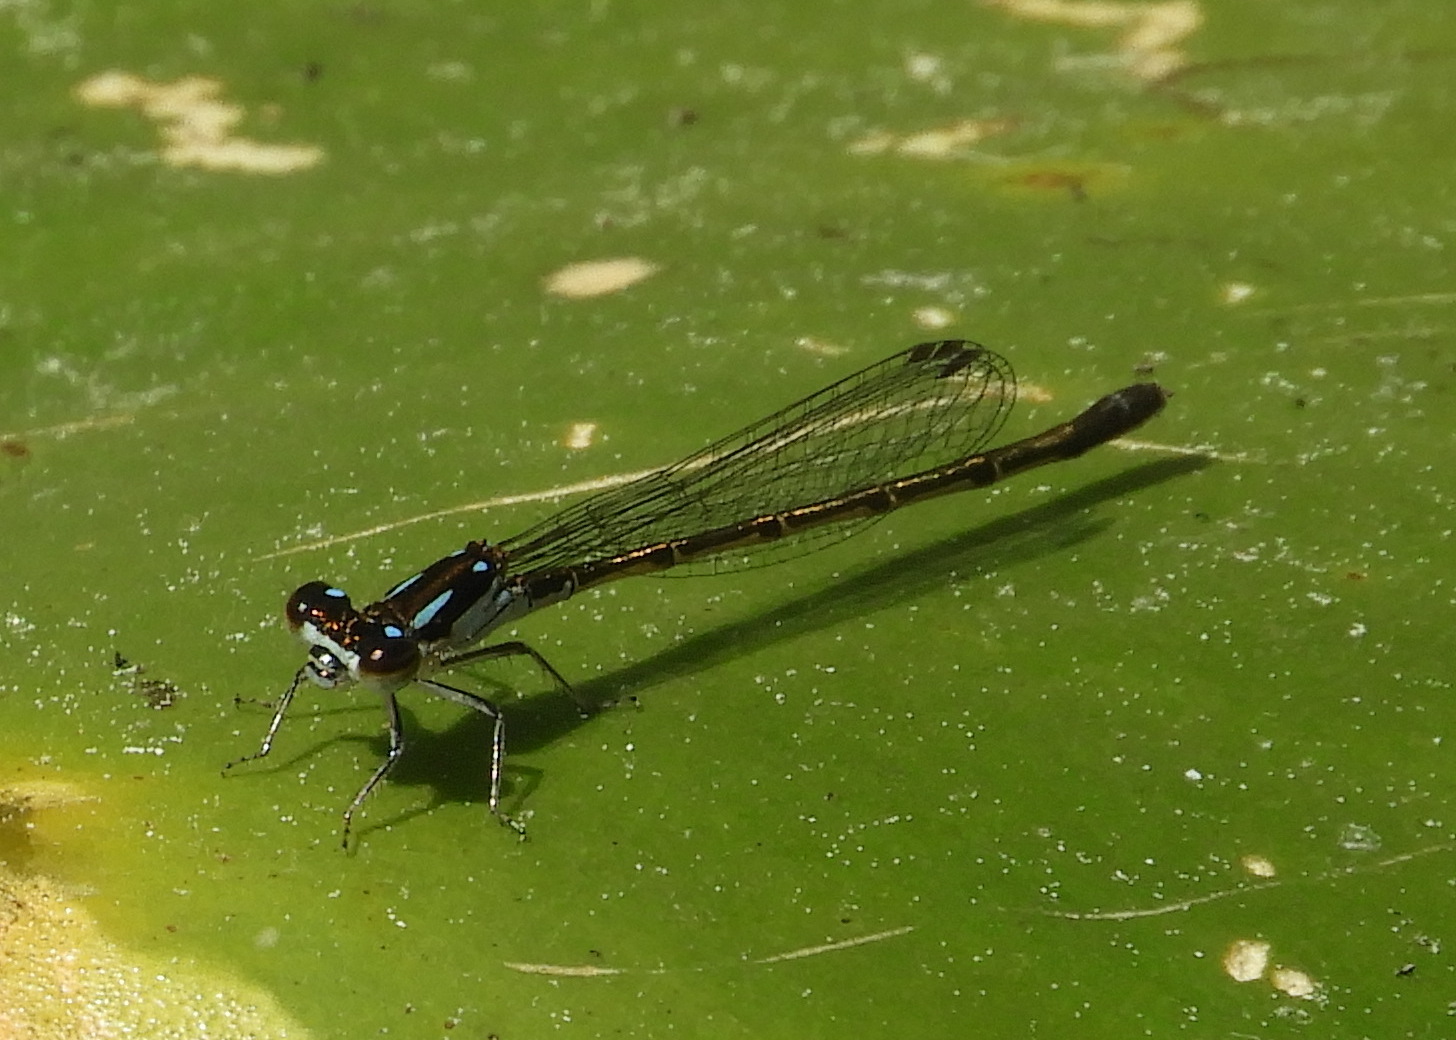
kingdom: Animalia
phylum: Arthropoda
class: Insecta
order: Odonata
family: Coenagrionidae
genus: Ischnura
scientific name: Ischnura posita
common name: Fragile forktail
